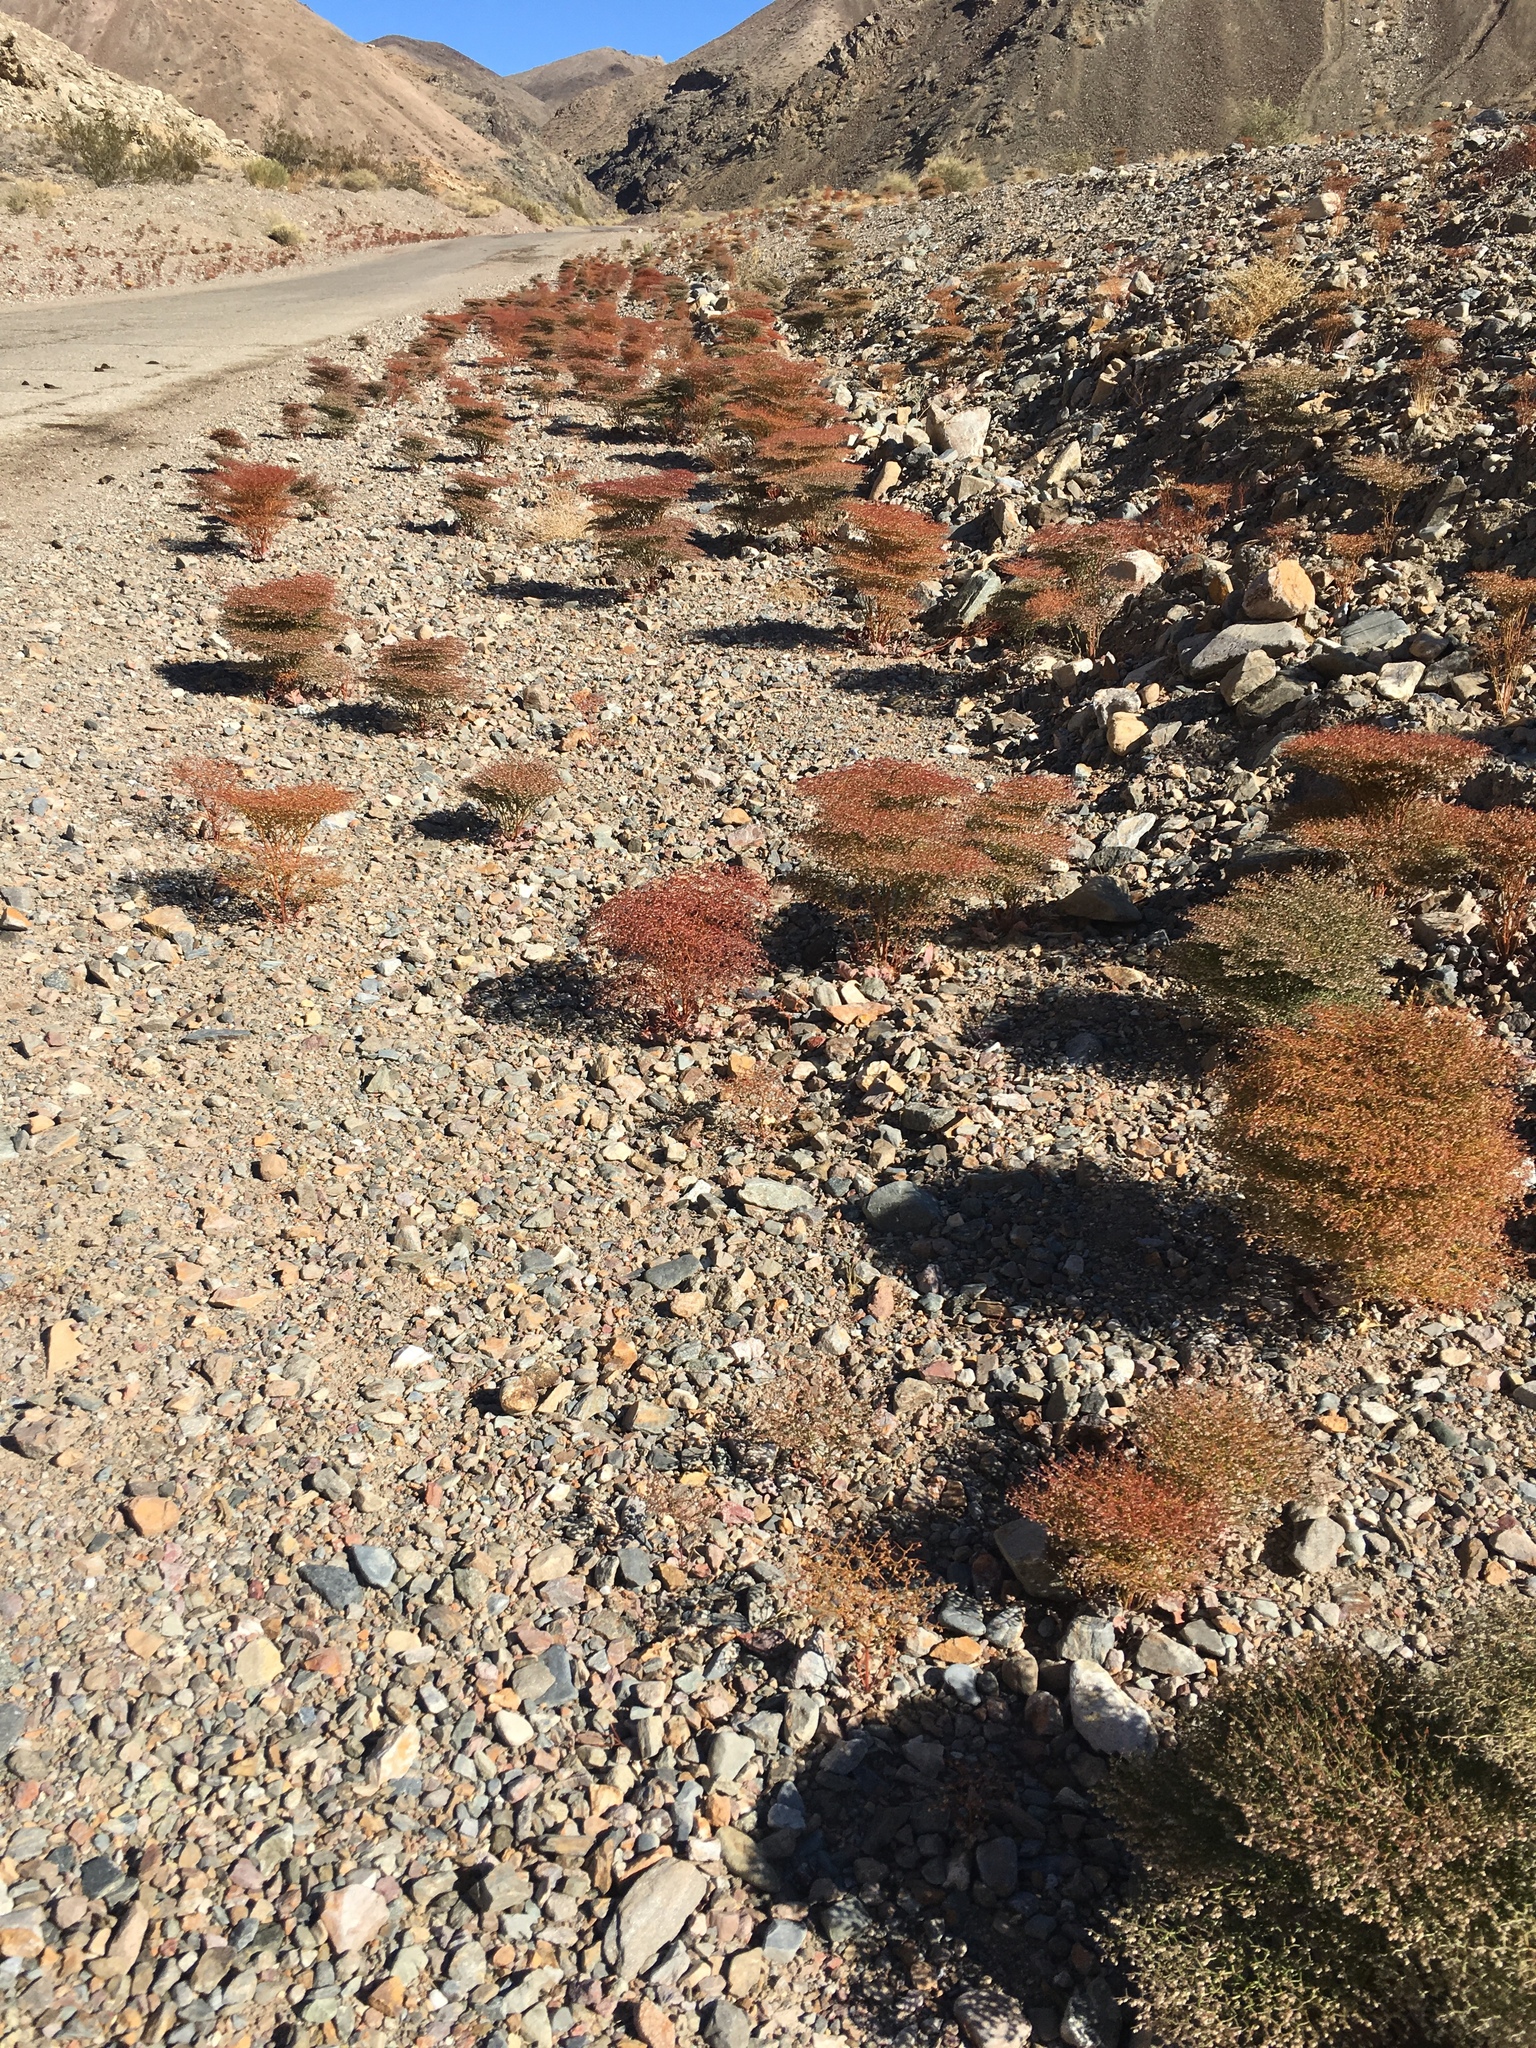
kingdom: Plantae
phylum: Tracheophyta
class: Magnoliopsida
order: Caryophyllales
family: Polygonaceae
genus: Eriogonum
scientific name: Eriogonum rixfordii
